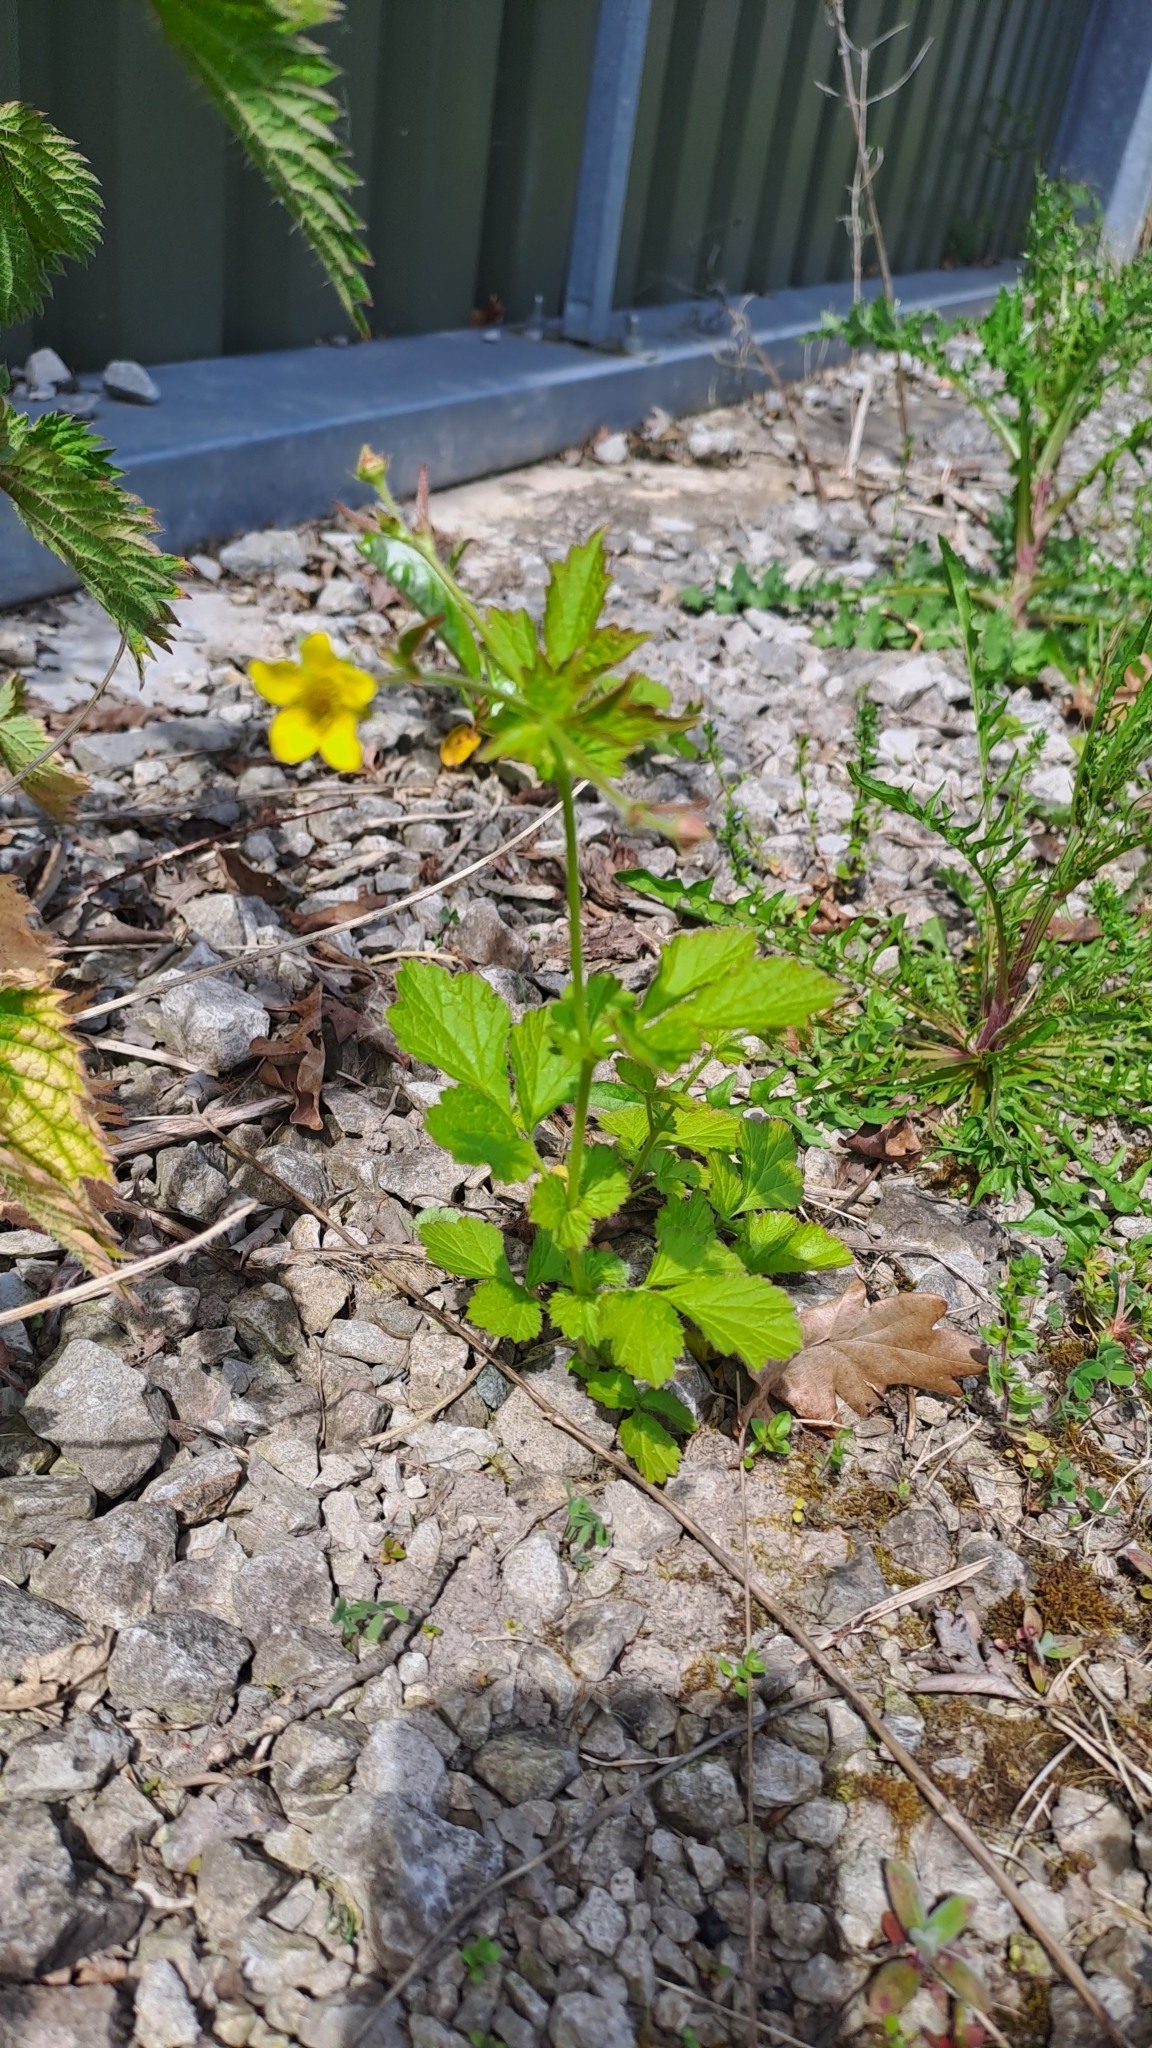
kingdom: Plantae
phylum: Tracheophyta
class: Magnoliopsida
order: Rosales
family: Rosaceae
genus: Geum
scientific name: Geum urbanum
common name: Wood avens
